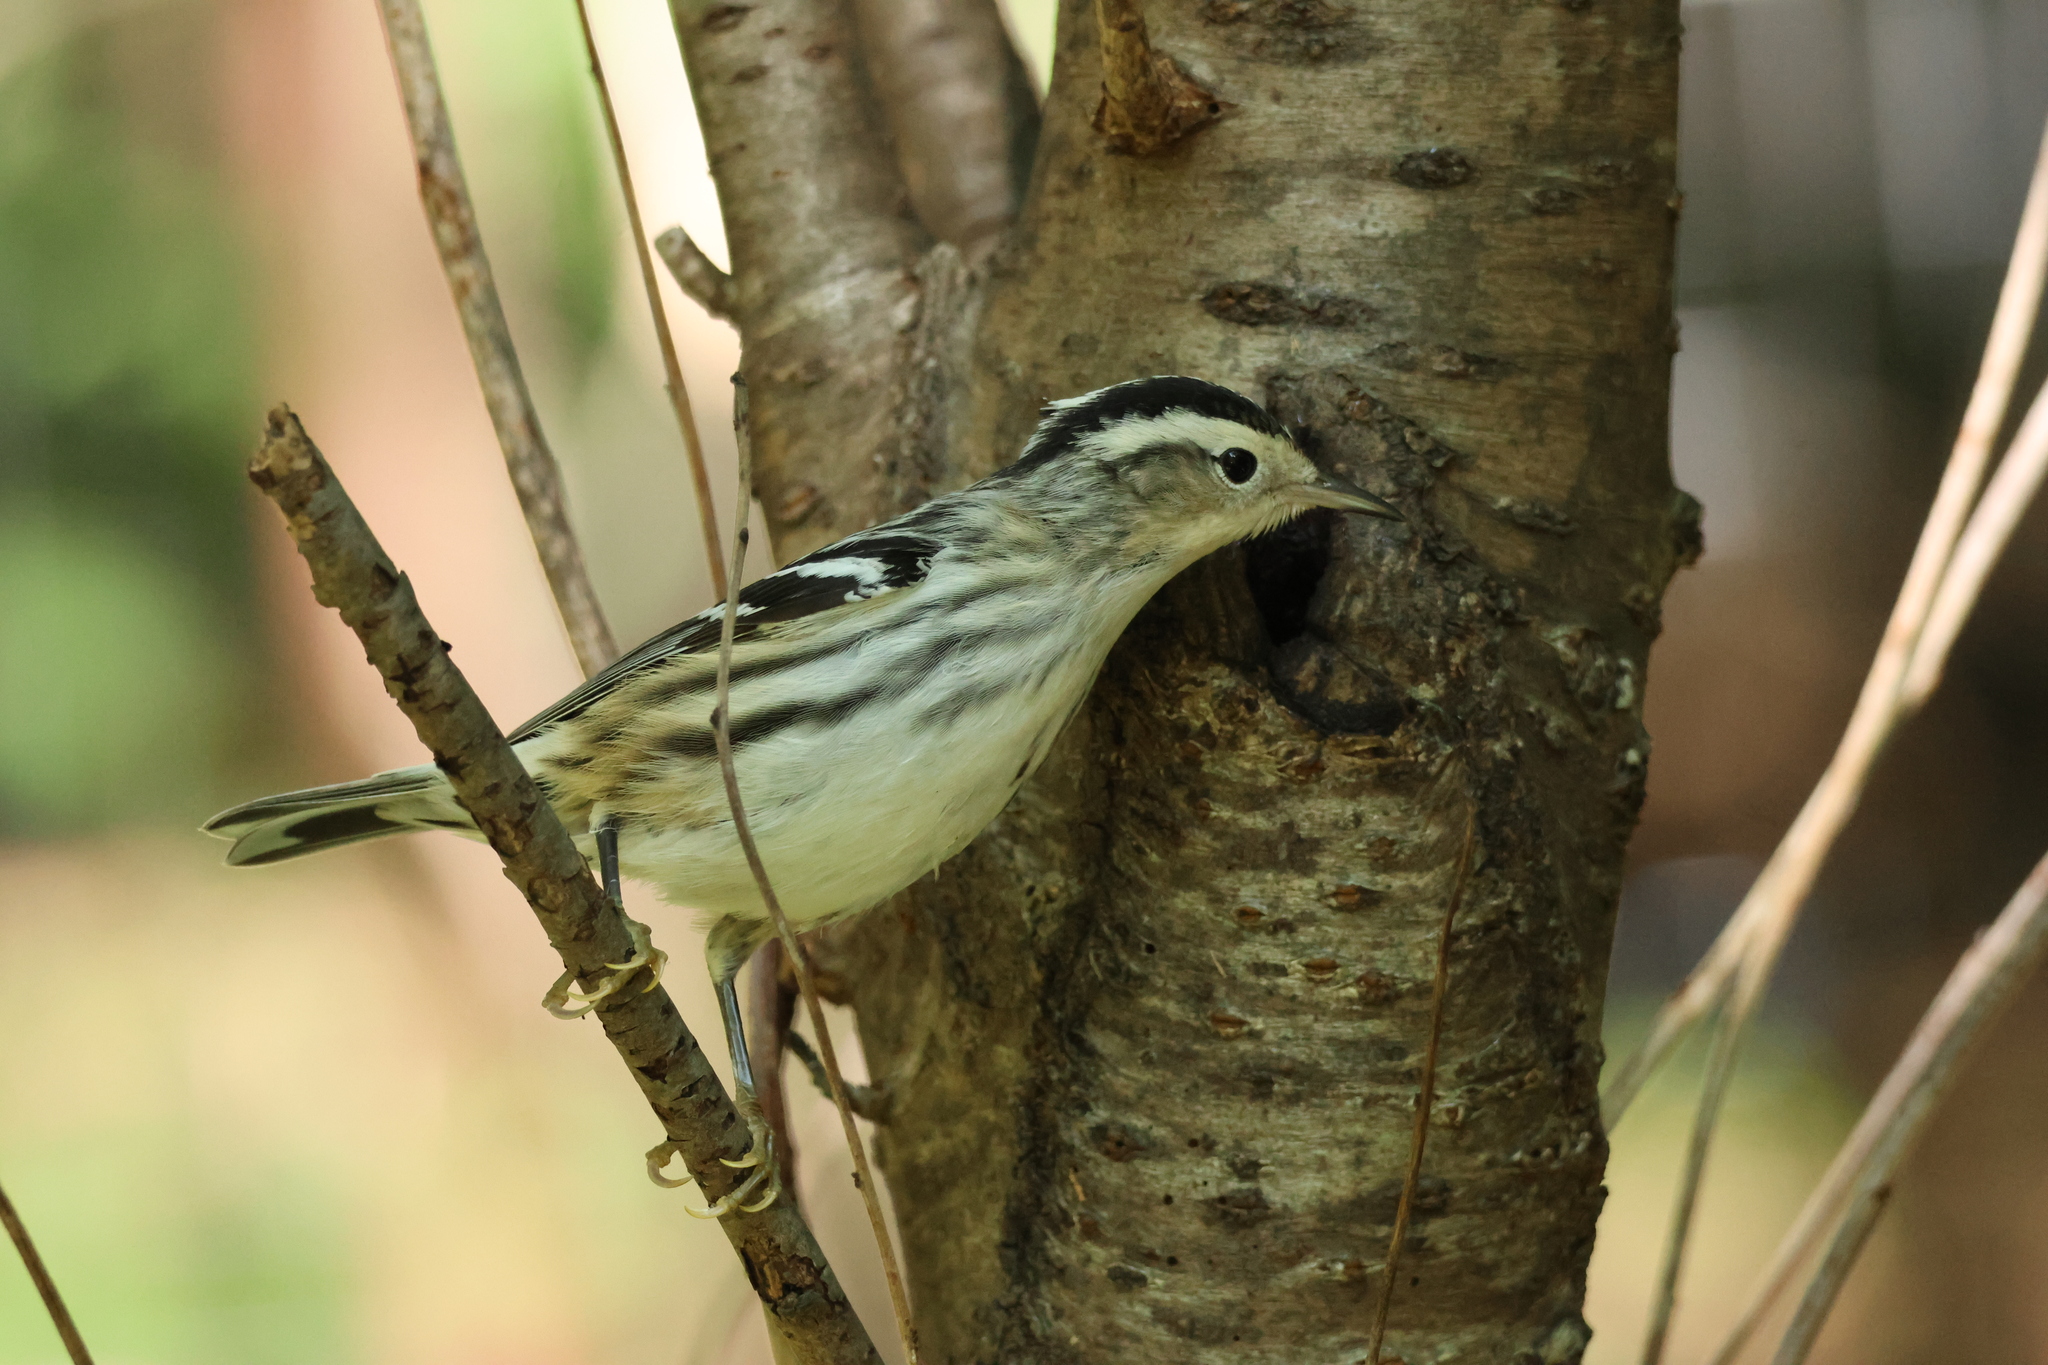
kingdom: Animalia
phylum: Chordata
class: Aves
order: Passeriformes
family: Parulidae
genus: Mniotilta
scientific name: Mniotilta varia
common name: Black-and-white warbler
